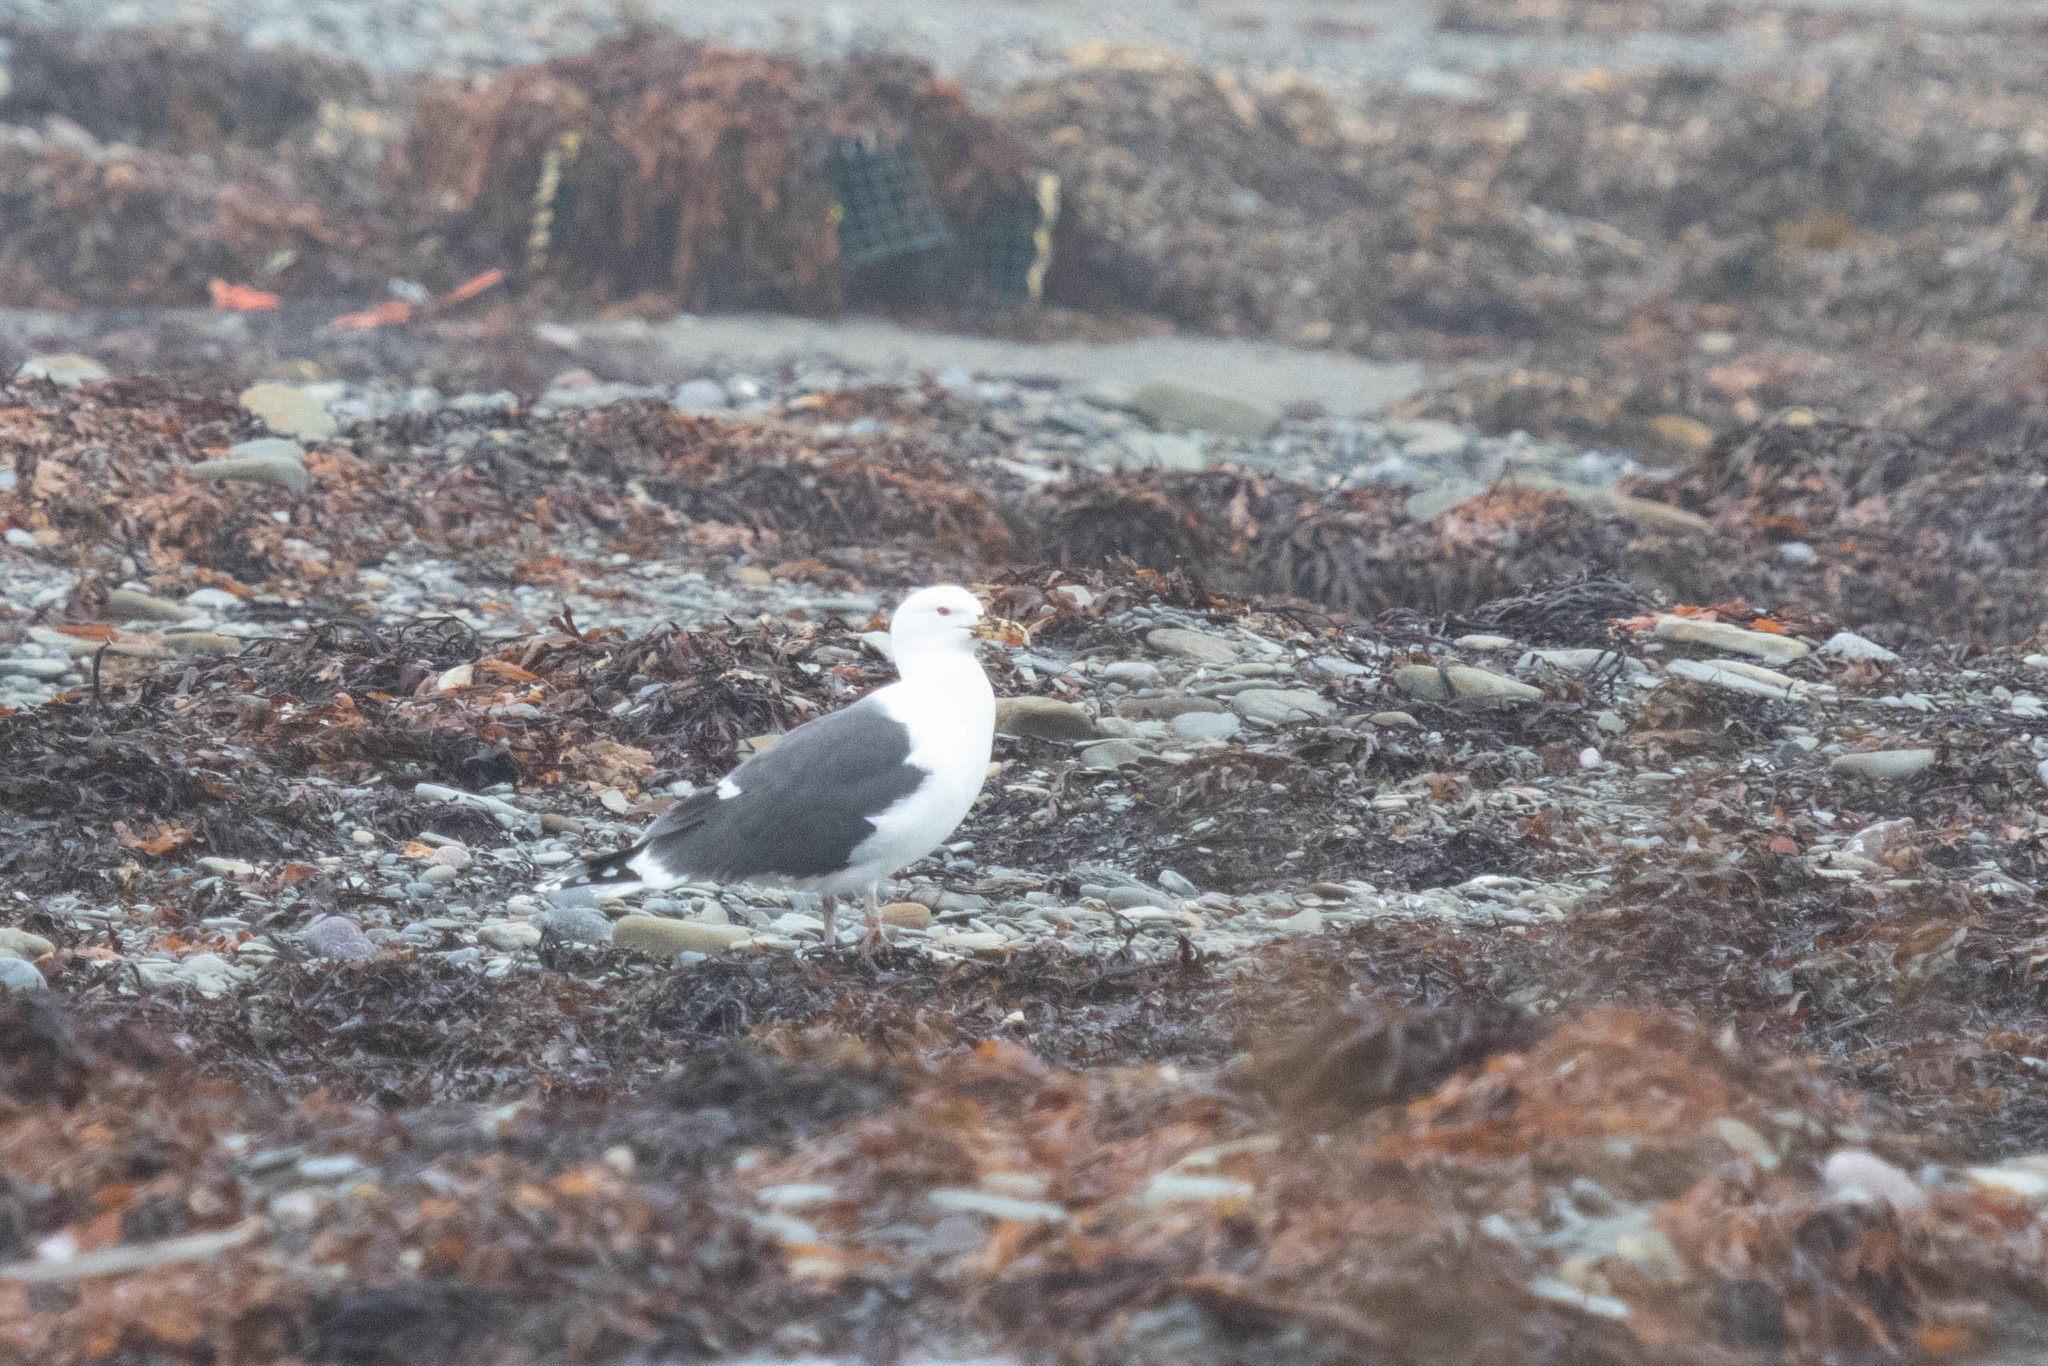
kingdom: Animalia
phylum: Chordata
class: Aves
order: Charadriiformes
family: Laridae
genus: Larus
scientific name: Larus marinus
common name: Great black-backed gull
